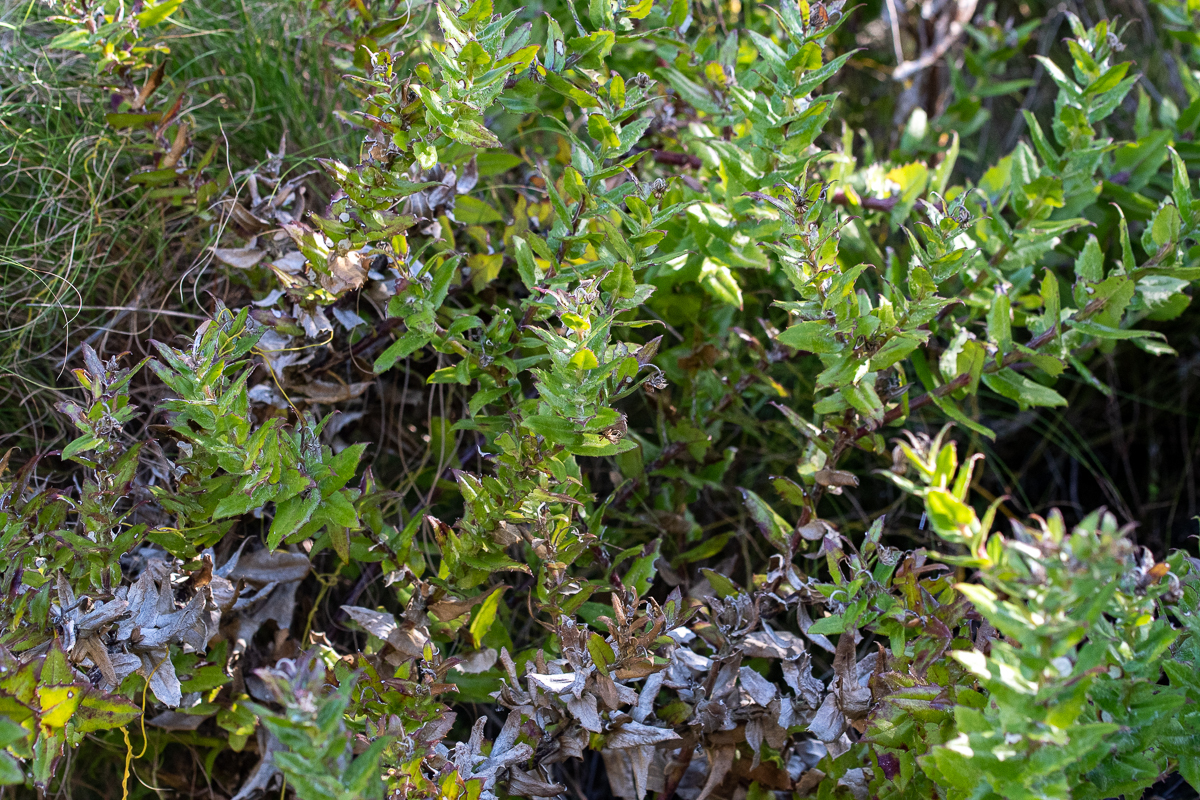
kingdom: Plantae
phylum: Tracheophyta
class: Magnoliopsida
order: Asterales
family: Asteraceae
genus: Osteospermum
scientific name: Osteospermum ilicifolium
